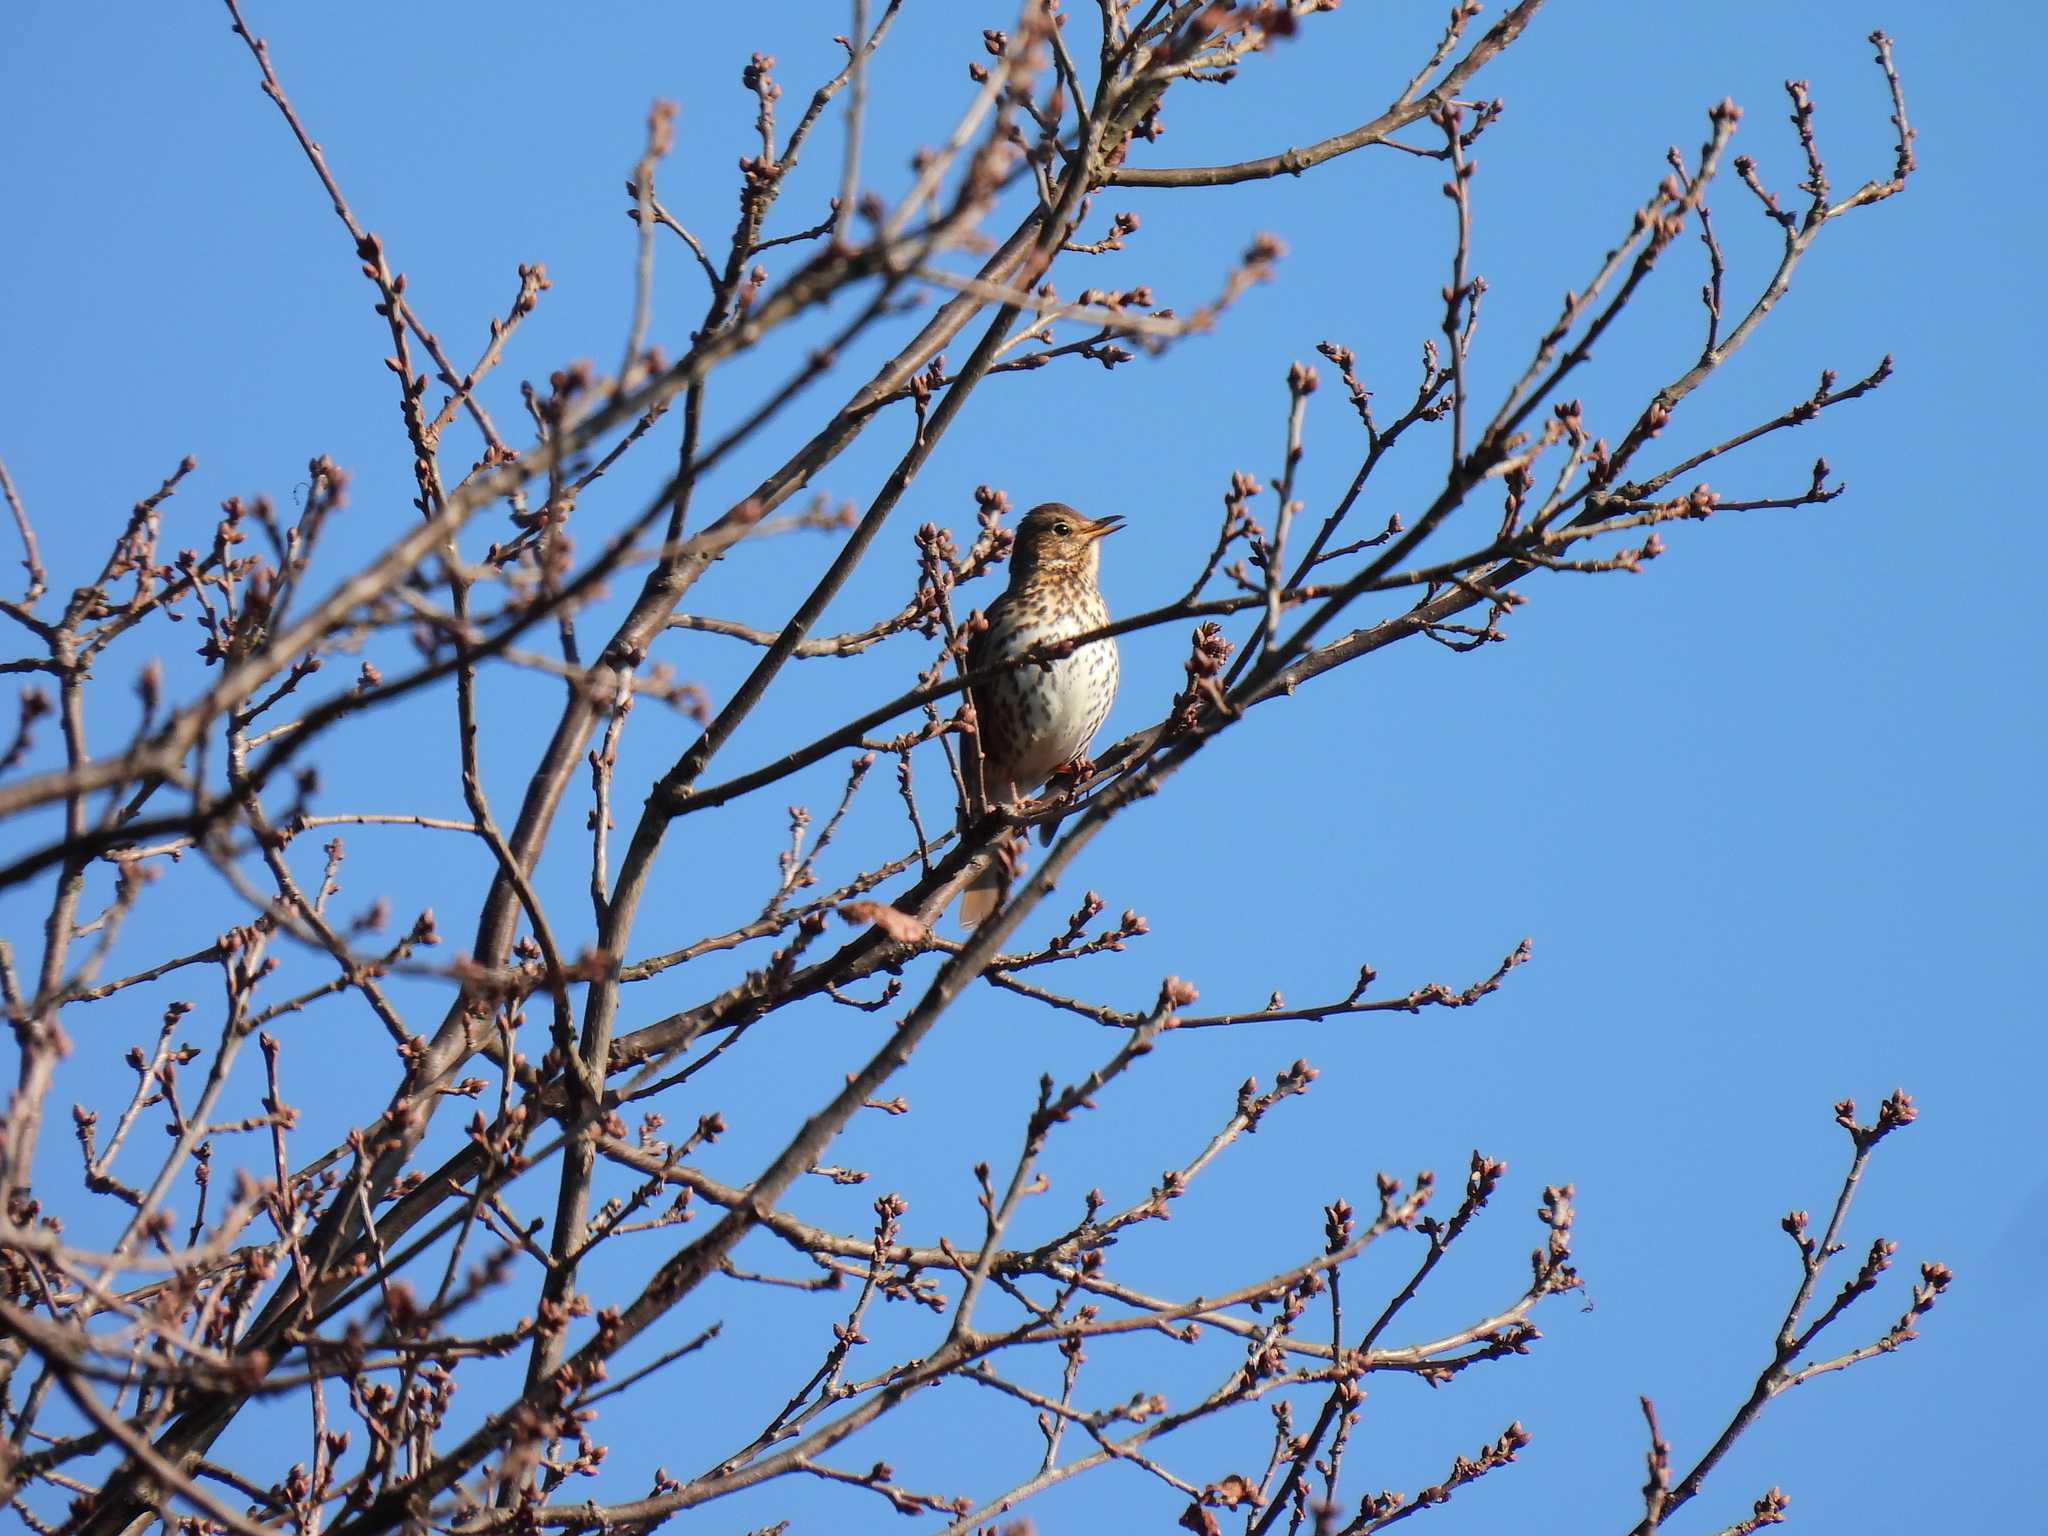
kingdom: Animalia
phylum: Chordata
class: Aves
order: Passeriformes
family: Turdidae
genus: Turdus
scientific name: Turdus philomelos
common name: Song thrush
